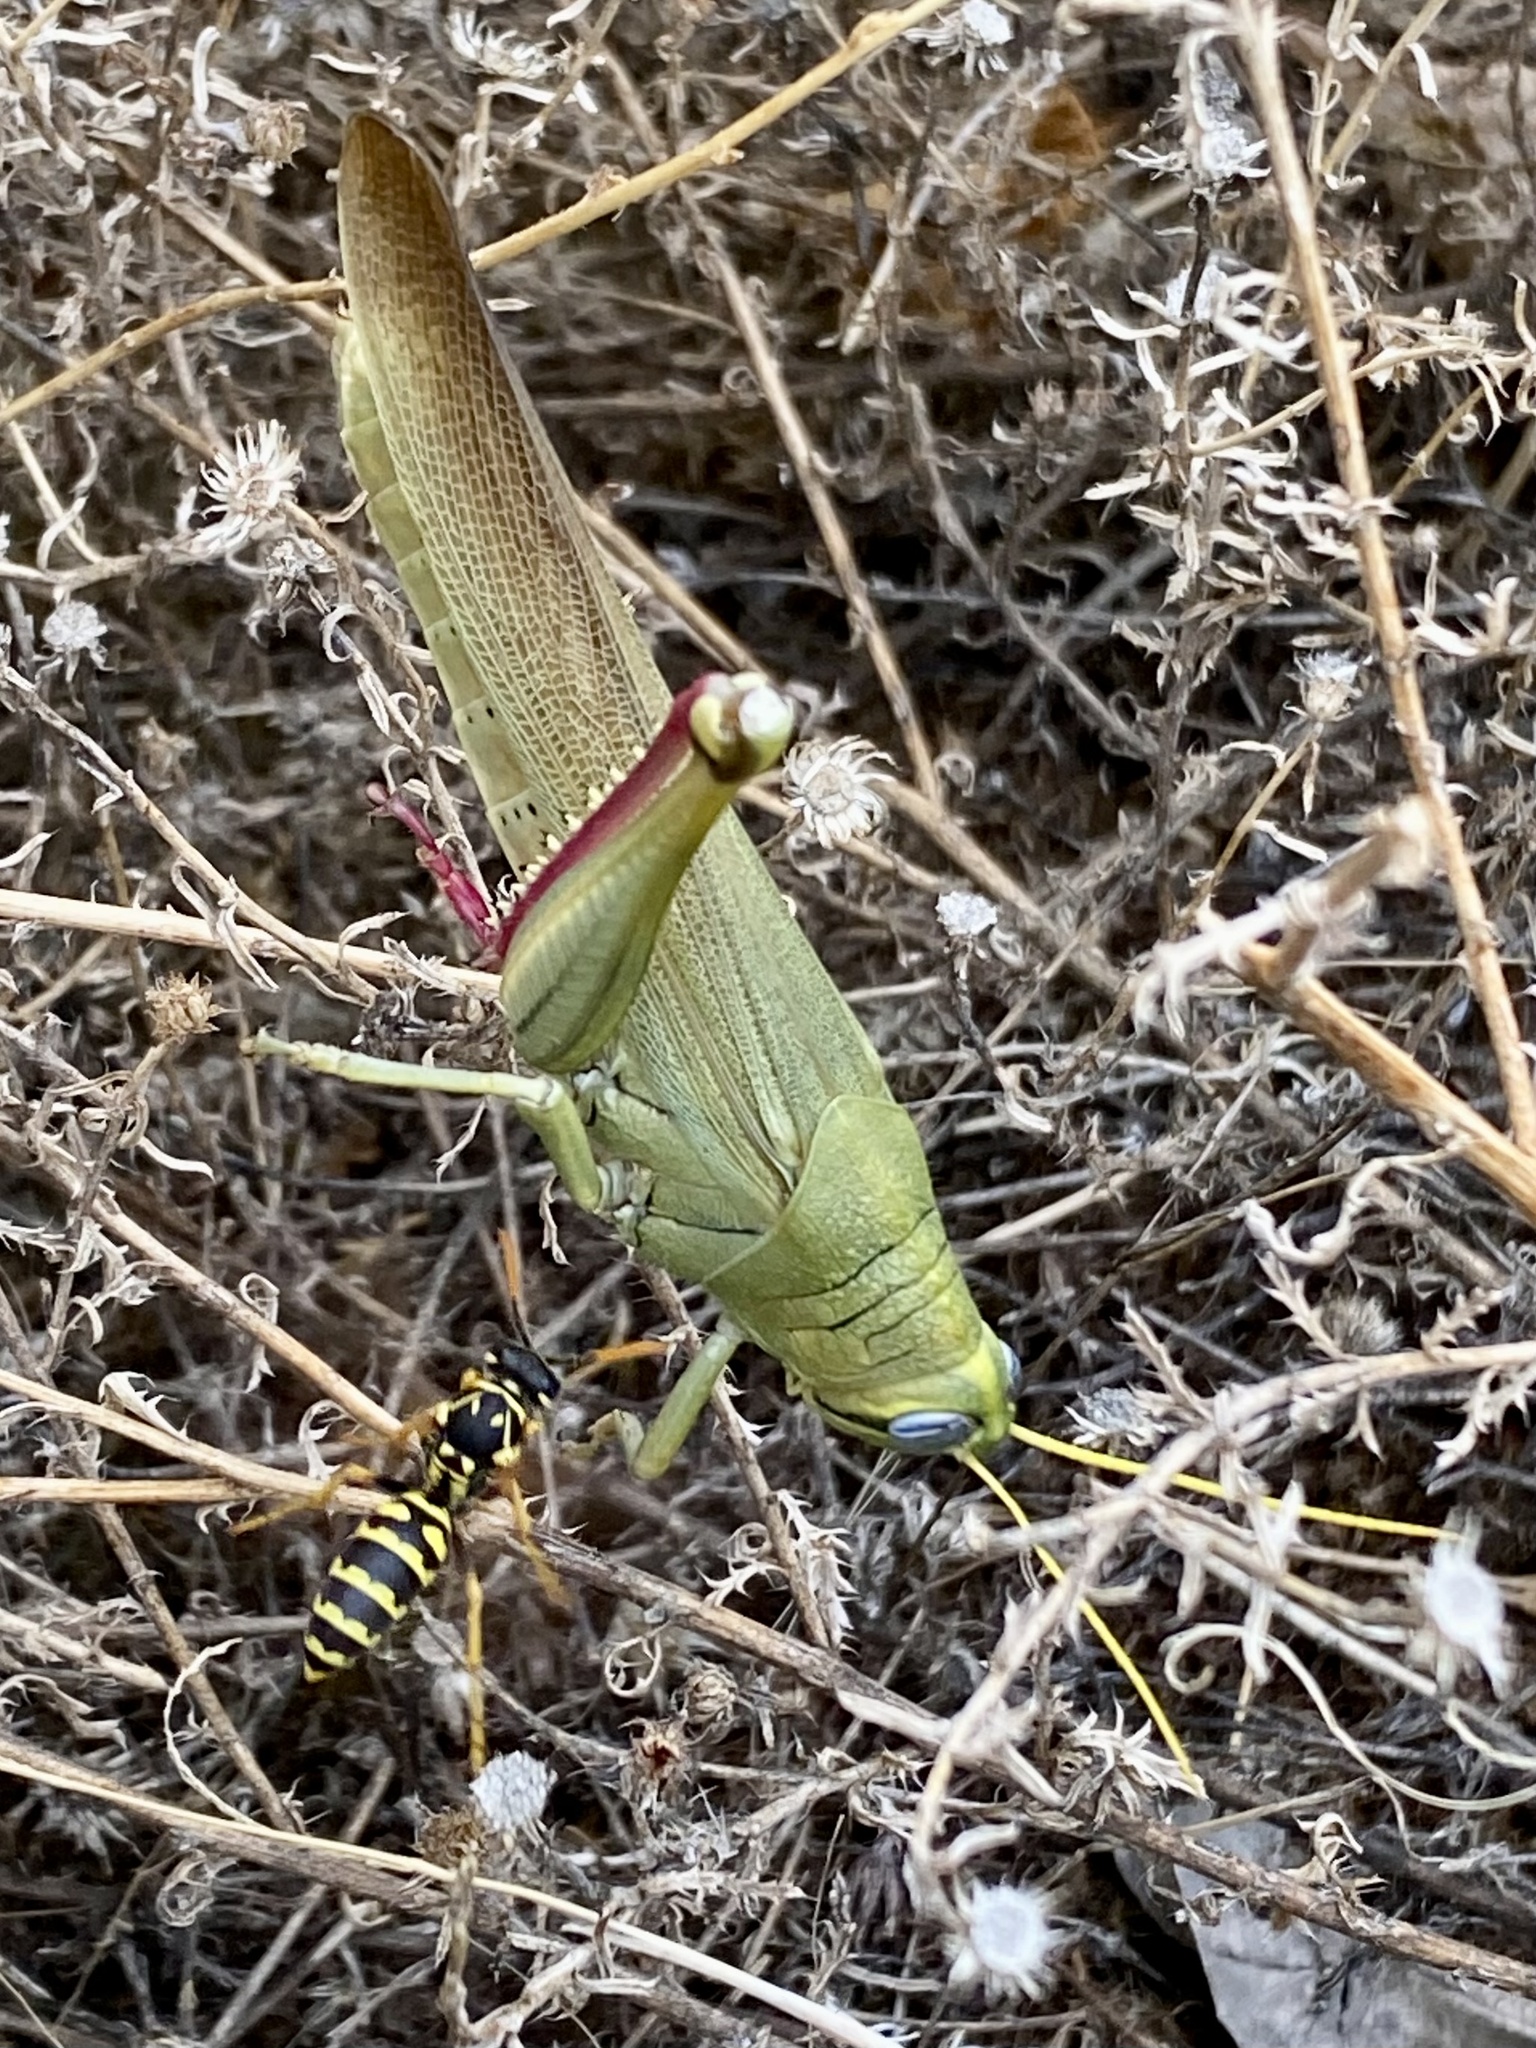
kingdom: Animalia
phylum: Arthropoda
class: Insecta
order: Orthoptera
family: Acrididae
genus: Schistocerca
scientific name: Schistocerca shoshone
